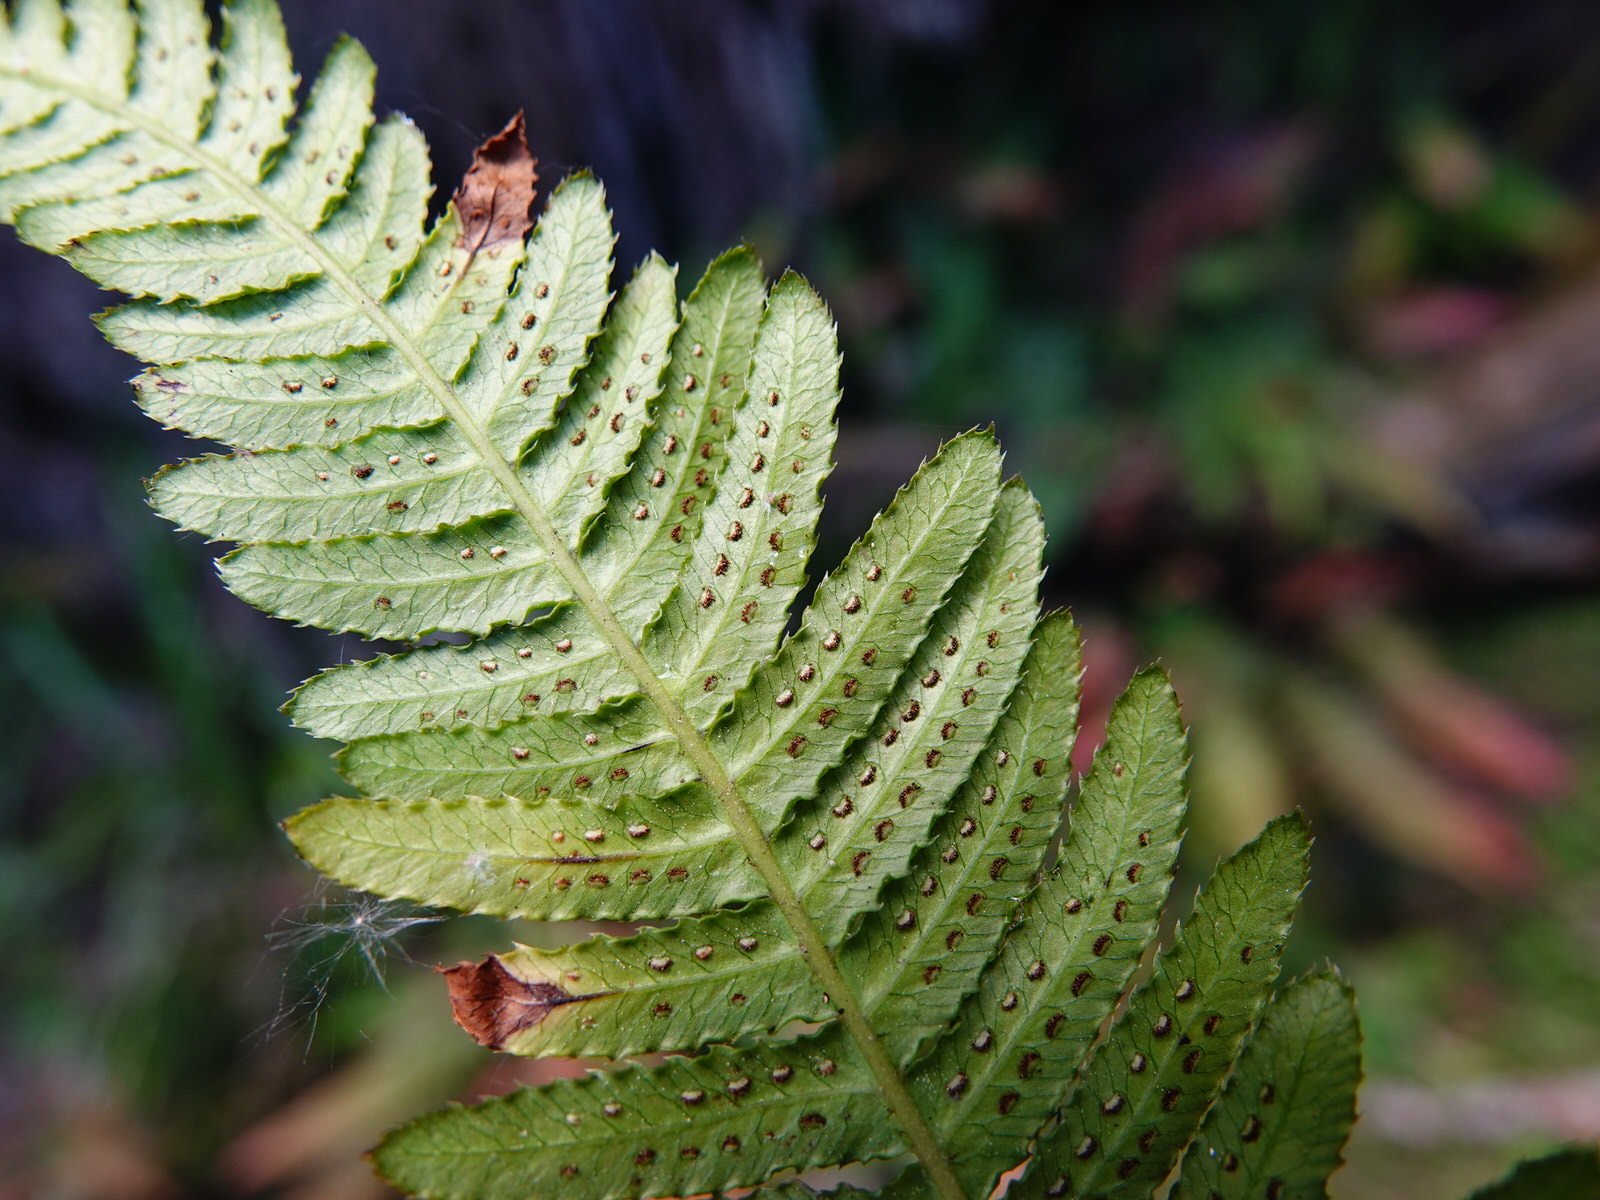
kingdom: Plantae
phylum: Tracheophyta
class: Polypodiopsida
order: Polypodiales
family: Blechnaceae
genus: Doodia
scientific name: Doodia australis
